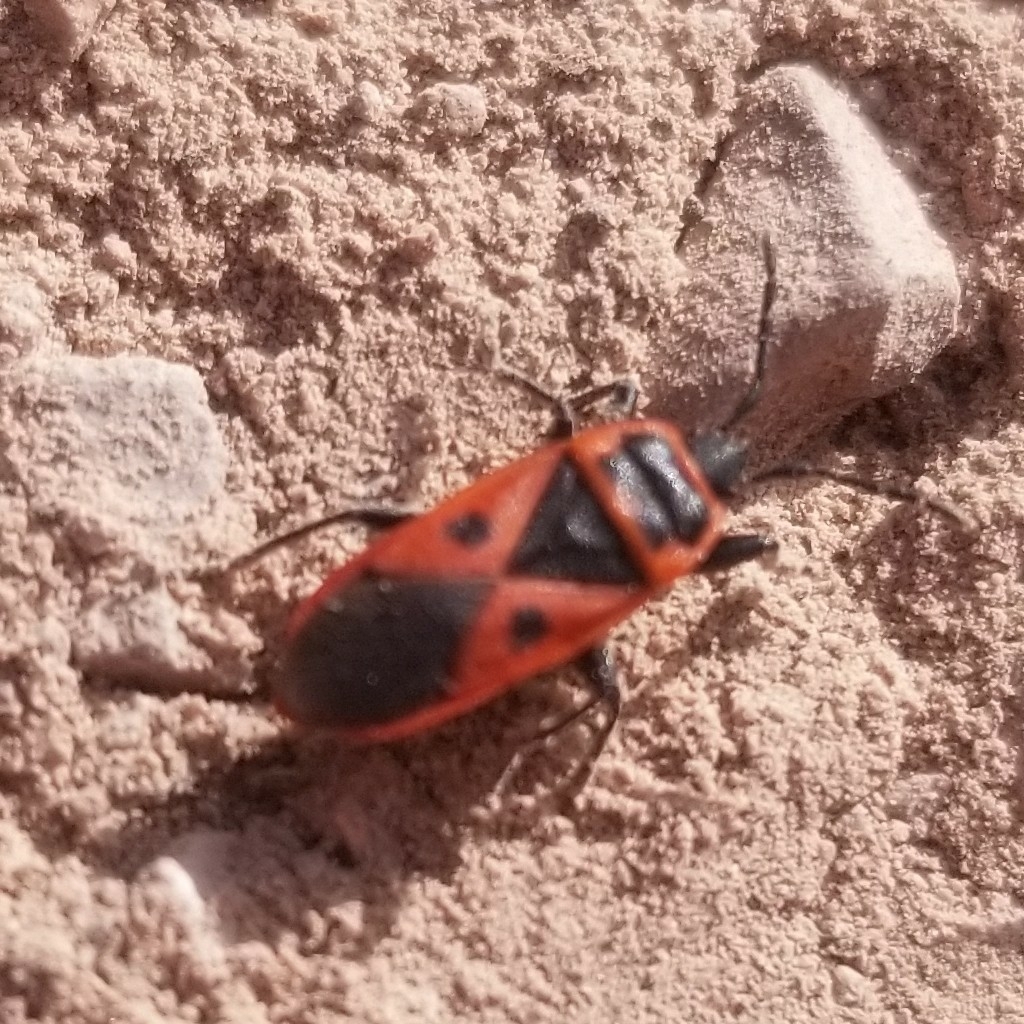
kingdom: Animalia
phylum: Arthropoda
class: Insecta
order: Hemiptera
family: Pyrrhocoridae
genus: Scantius
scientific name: Scantius aegyptius
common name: Red bug
